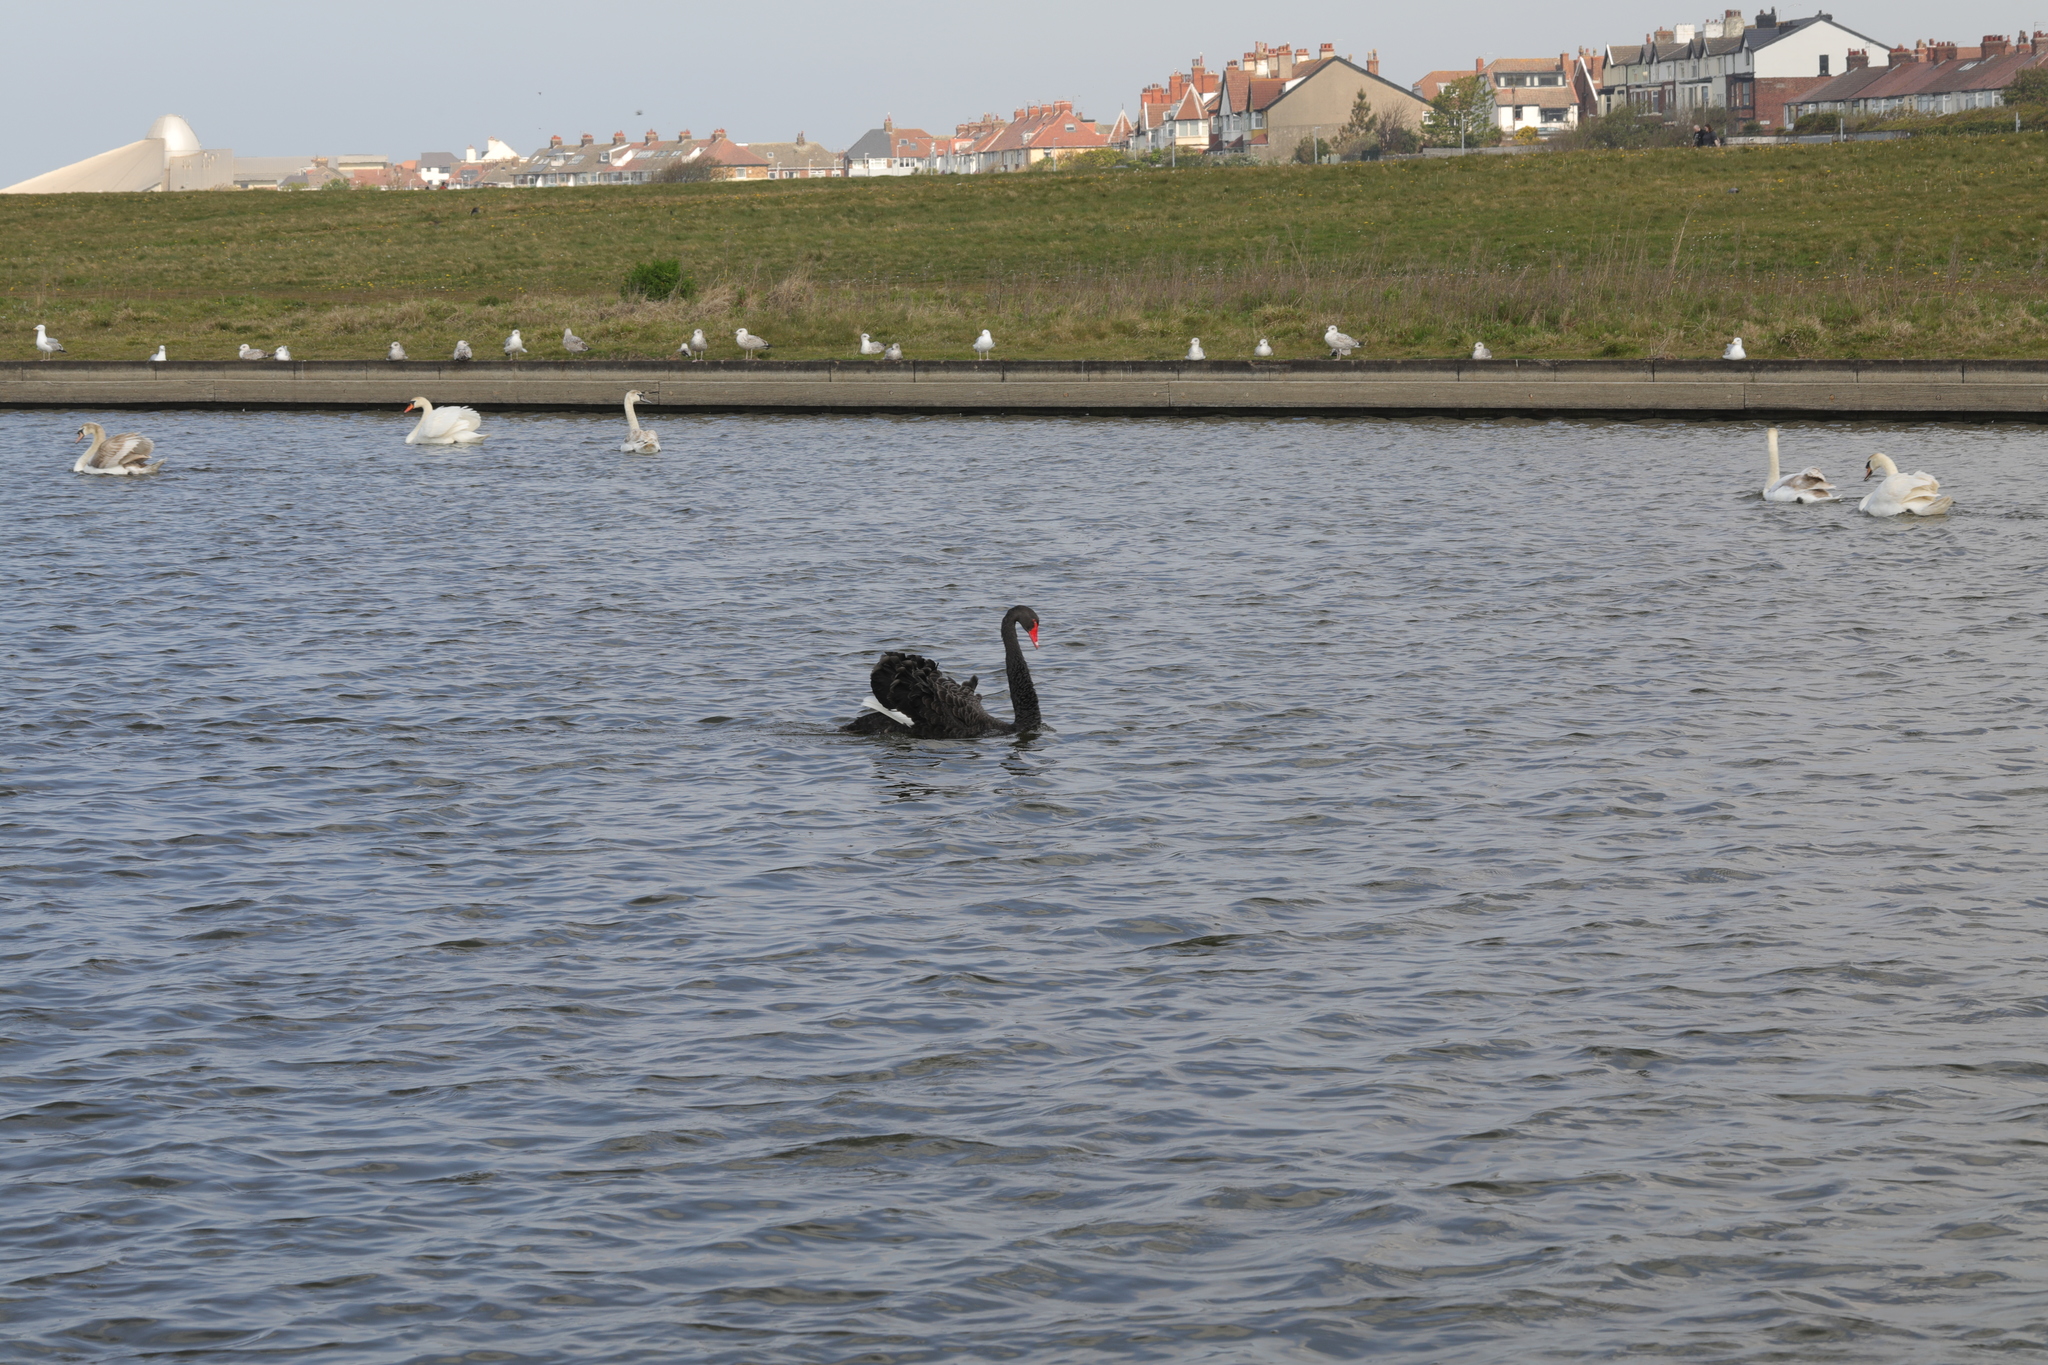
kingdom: Animalia
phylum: Chordata
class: Aves
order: Anseriformes
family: Anatidae
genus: Cygnus
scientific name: Cygnus atratus
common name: Black swan
